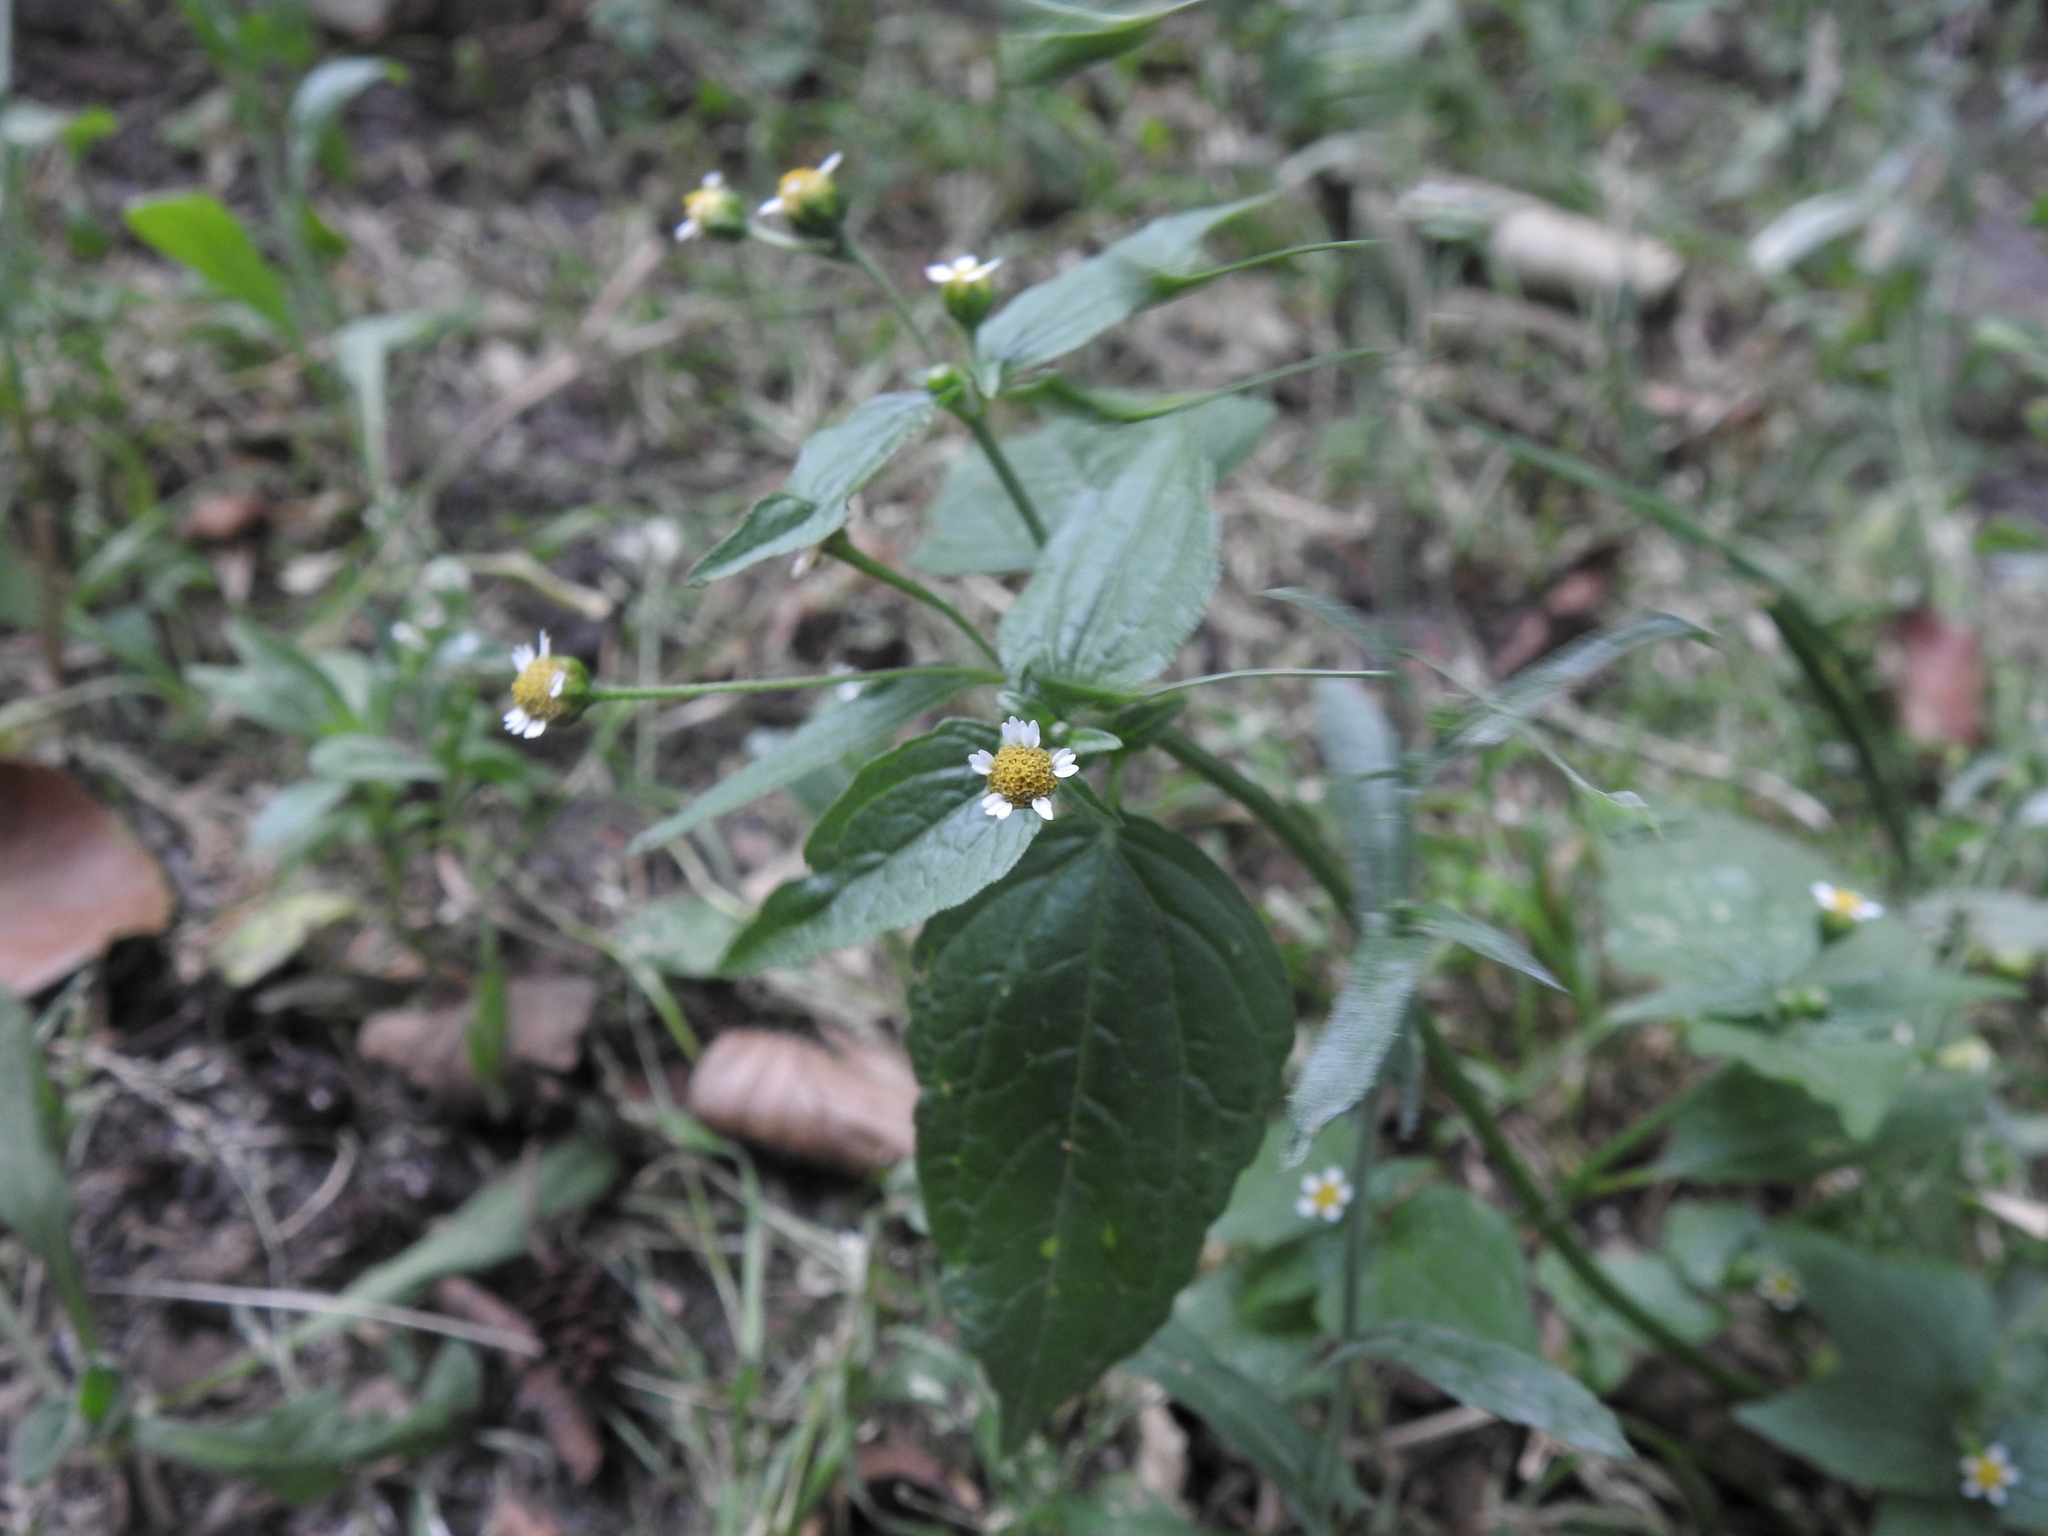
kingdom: Plantae
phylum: Tracheophyta
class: Magnoliopsida
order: Asterales
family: Asteraceae
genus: Galinsoga
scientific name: Galinsoga parviflora
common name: Gallant soldier
